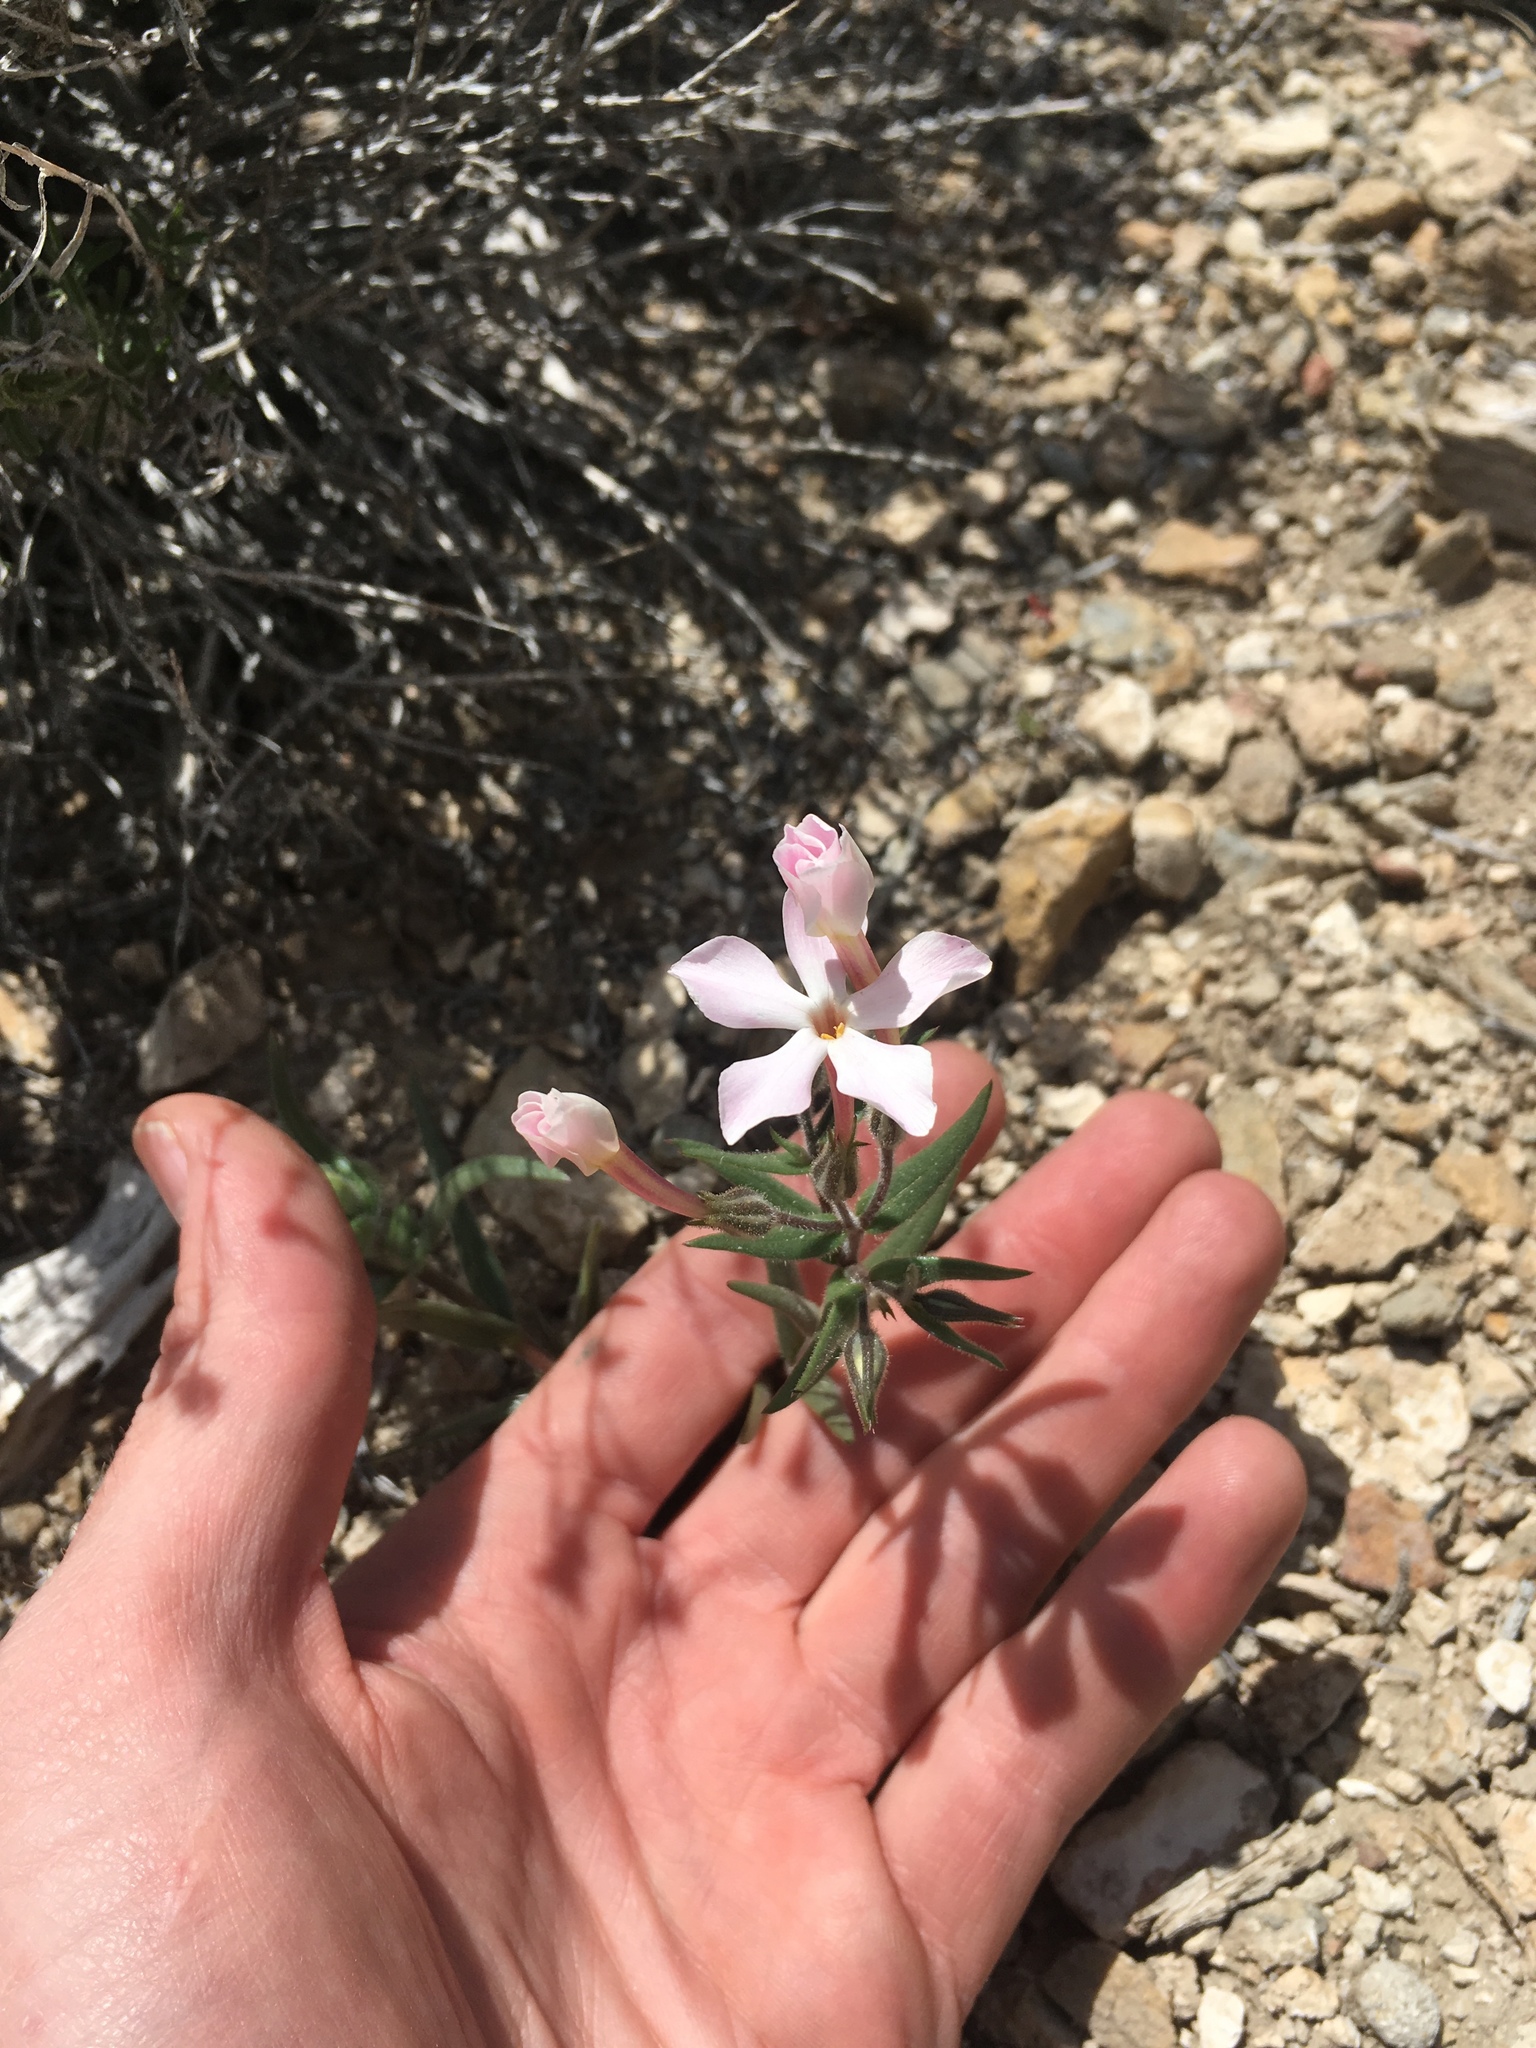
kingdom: Plantae
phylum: Tracheophyta
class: Magnoliopsida
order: Ericales
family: Polemoniaceae
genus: Phlox
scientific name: Phlox longifolia
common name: Longleaf phlox
